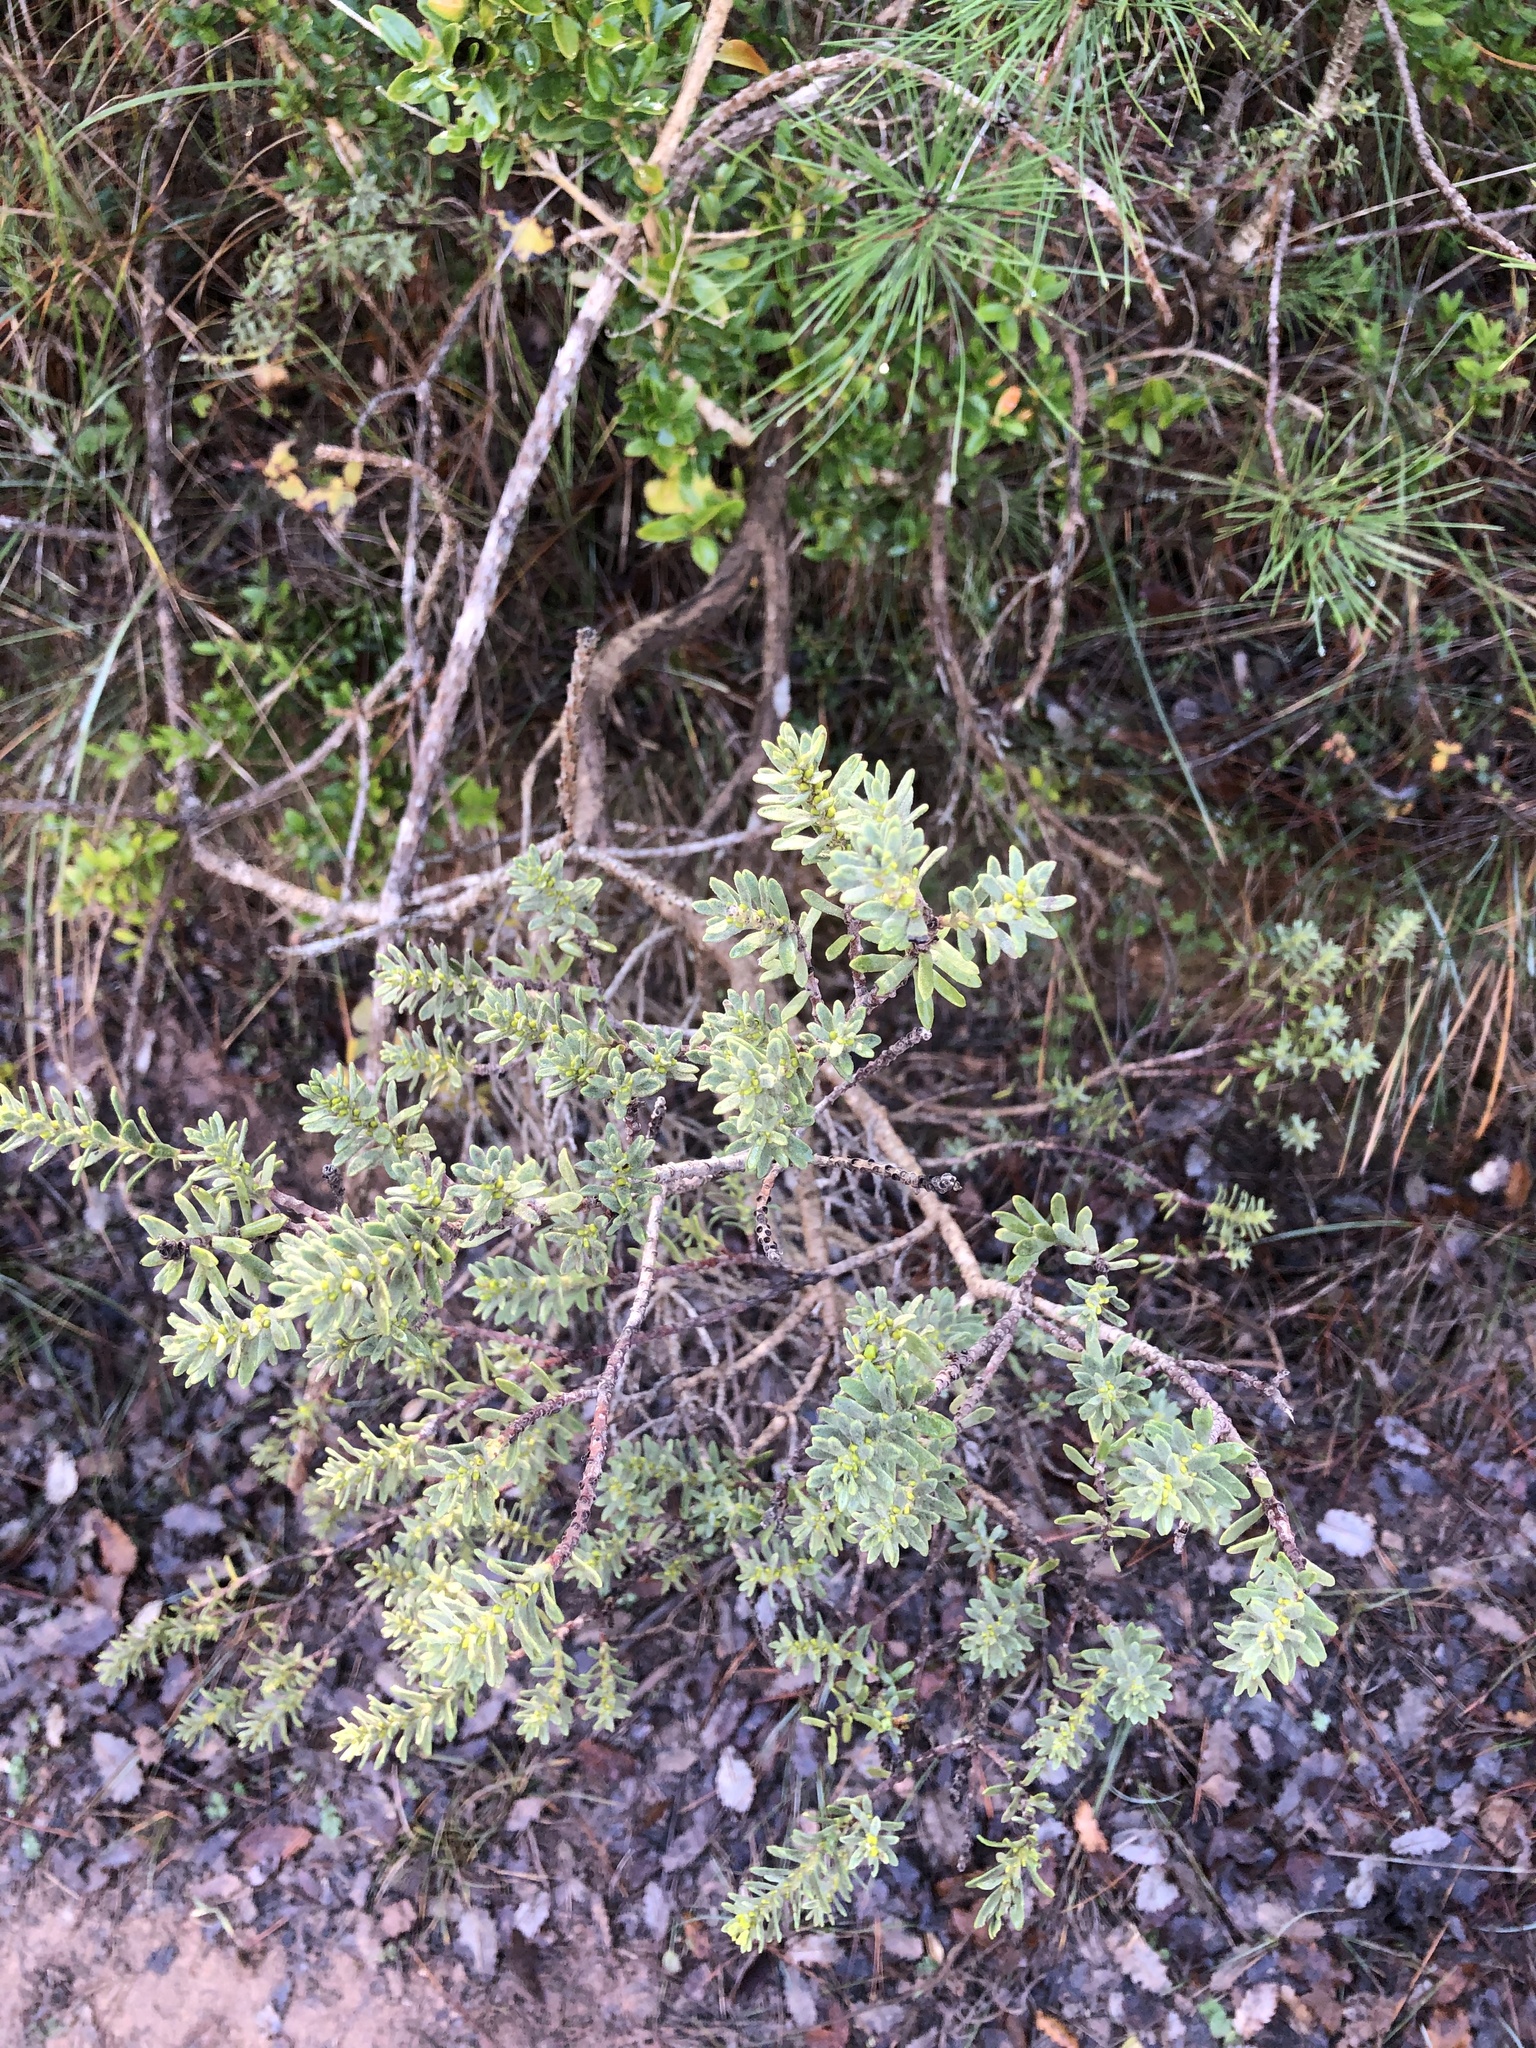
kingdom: Plantae
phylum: Tracheophyta
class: Magnoliopsida
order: Malvales
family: Thymelaeaceae
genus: Thymelaea
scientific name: Thymelaea tinctoria
